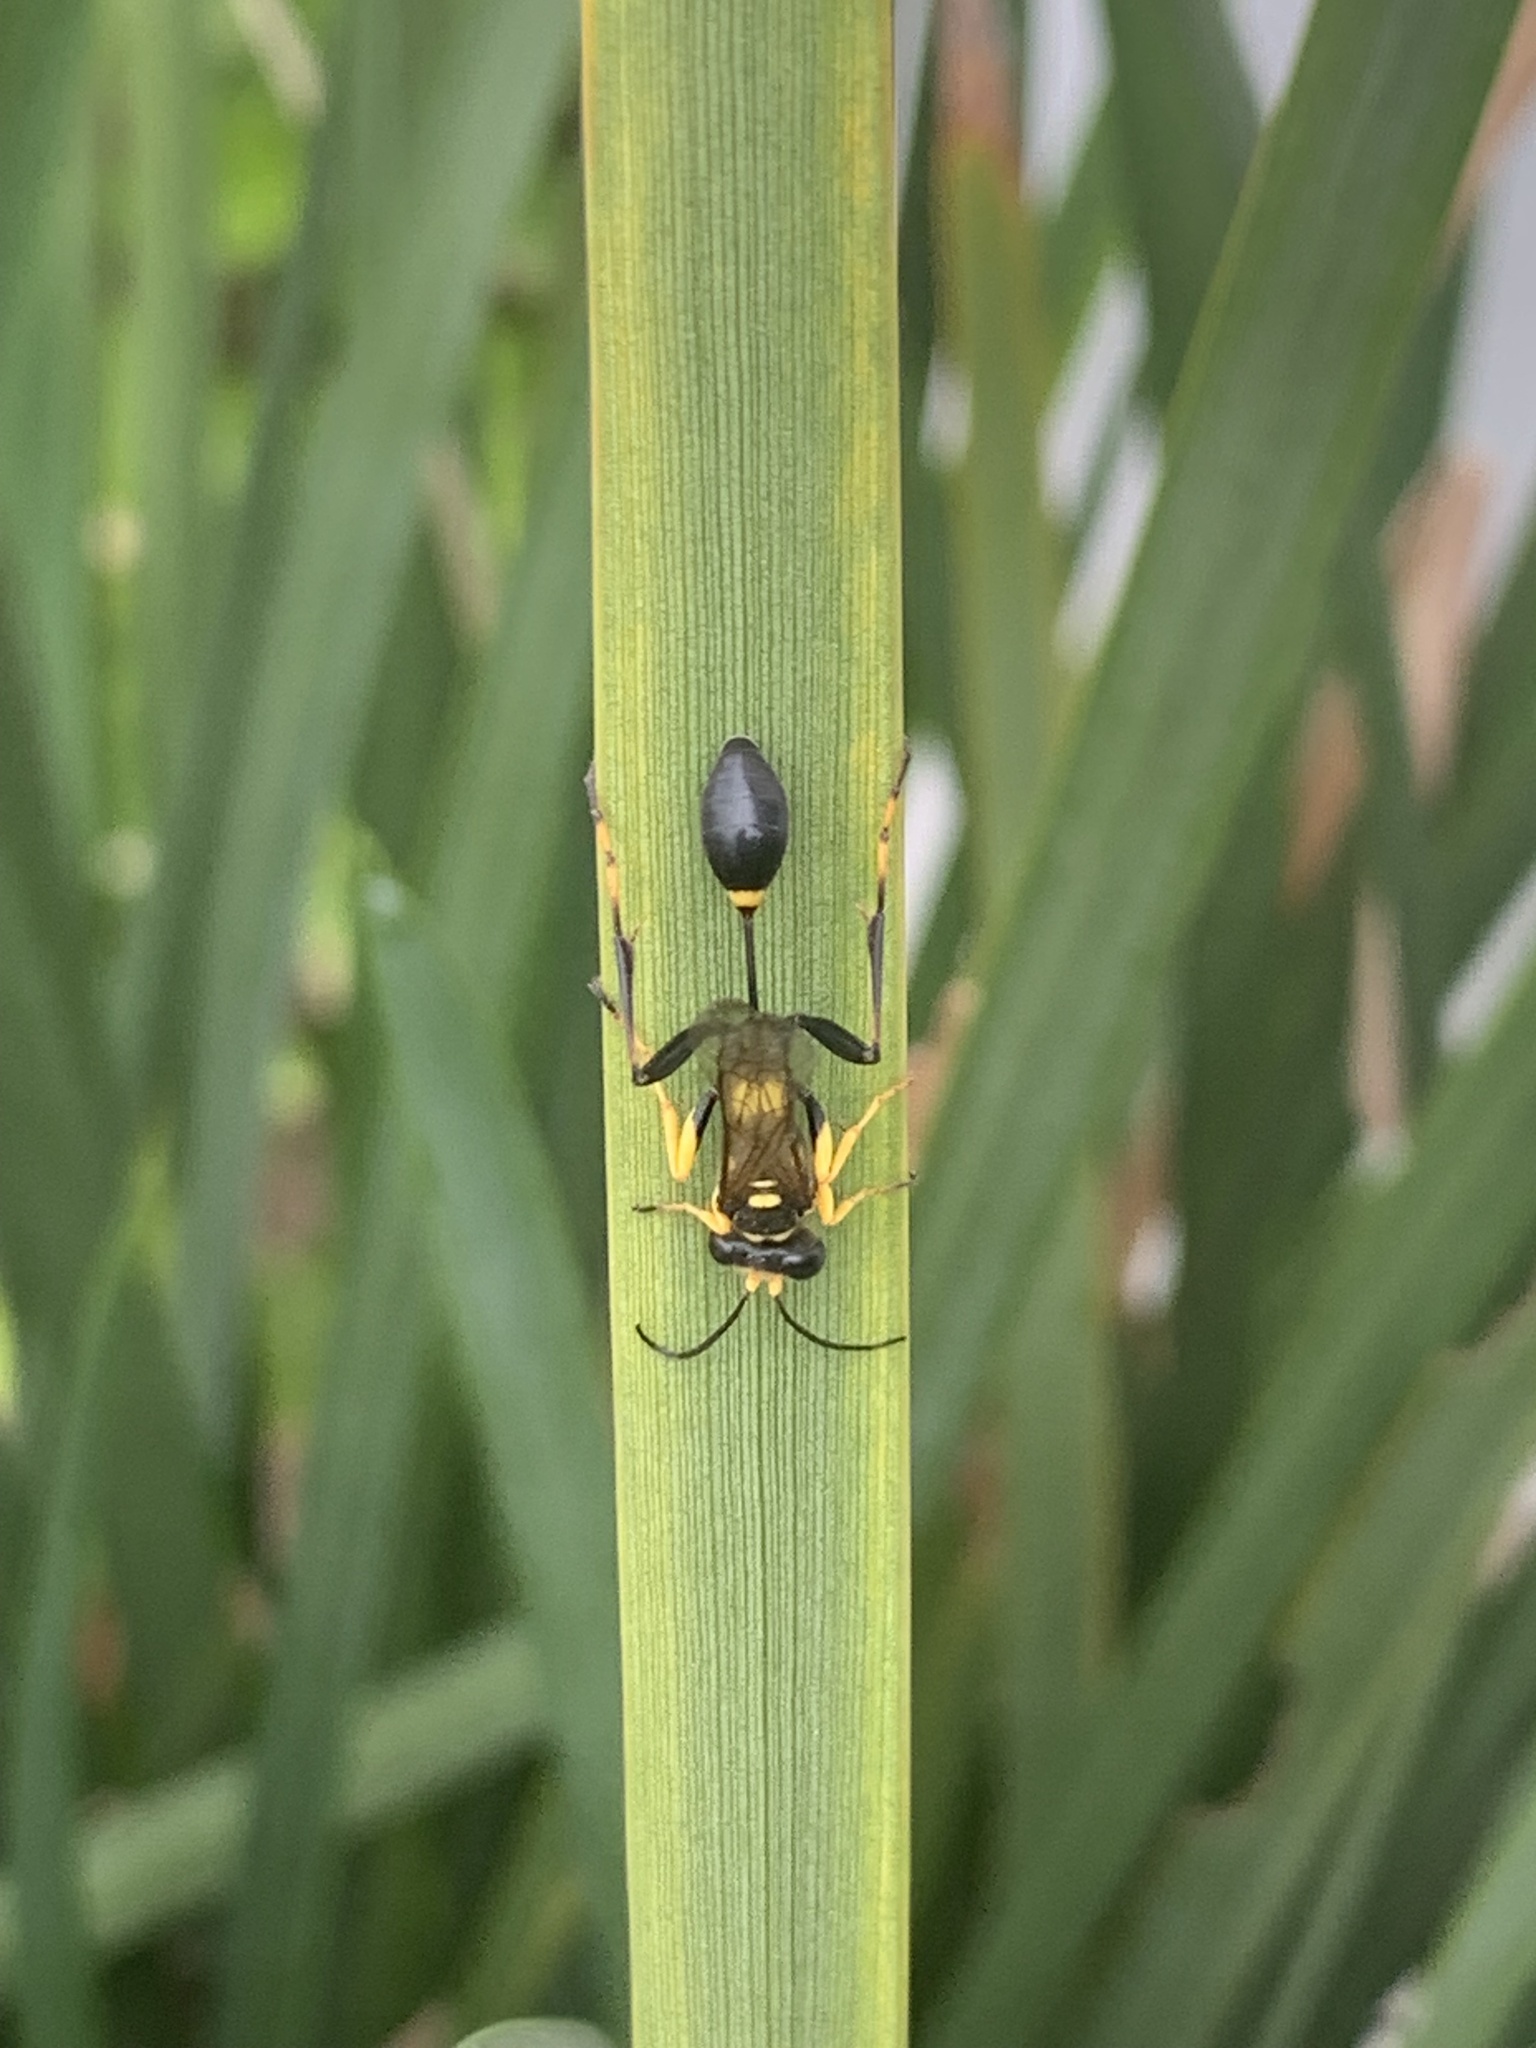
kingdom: Animalia
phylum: Arthropoda
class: Insecta
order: Hymenoptera
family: Sphecidae
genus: Sceliphron
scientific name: Sceliphron caementarium
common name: Mud dauber
